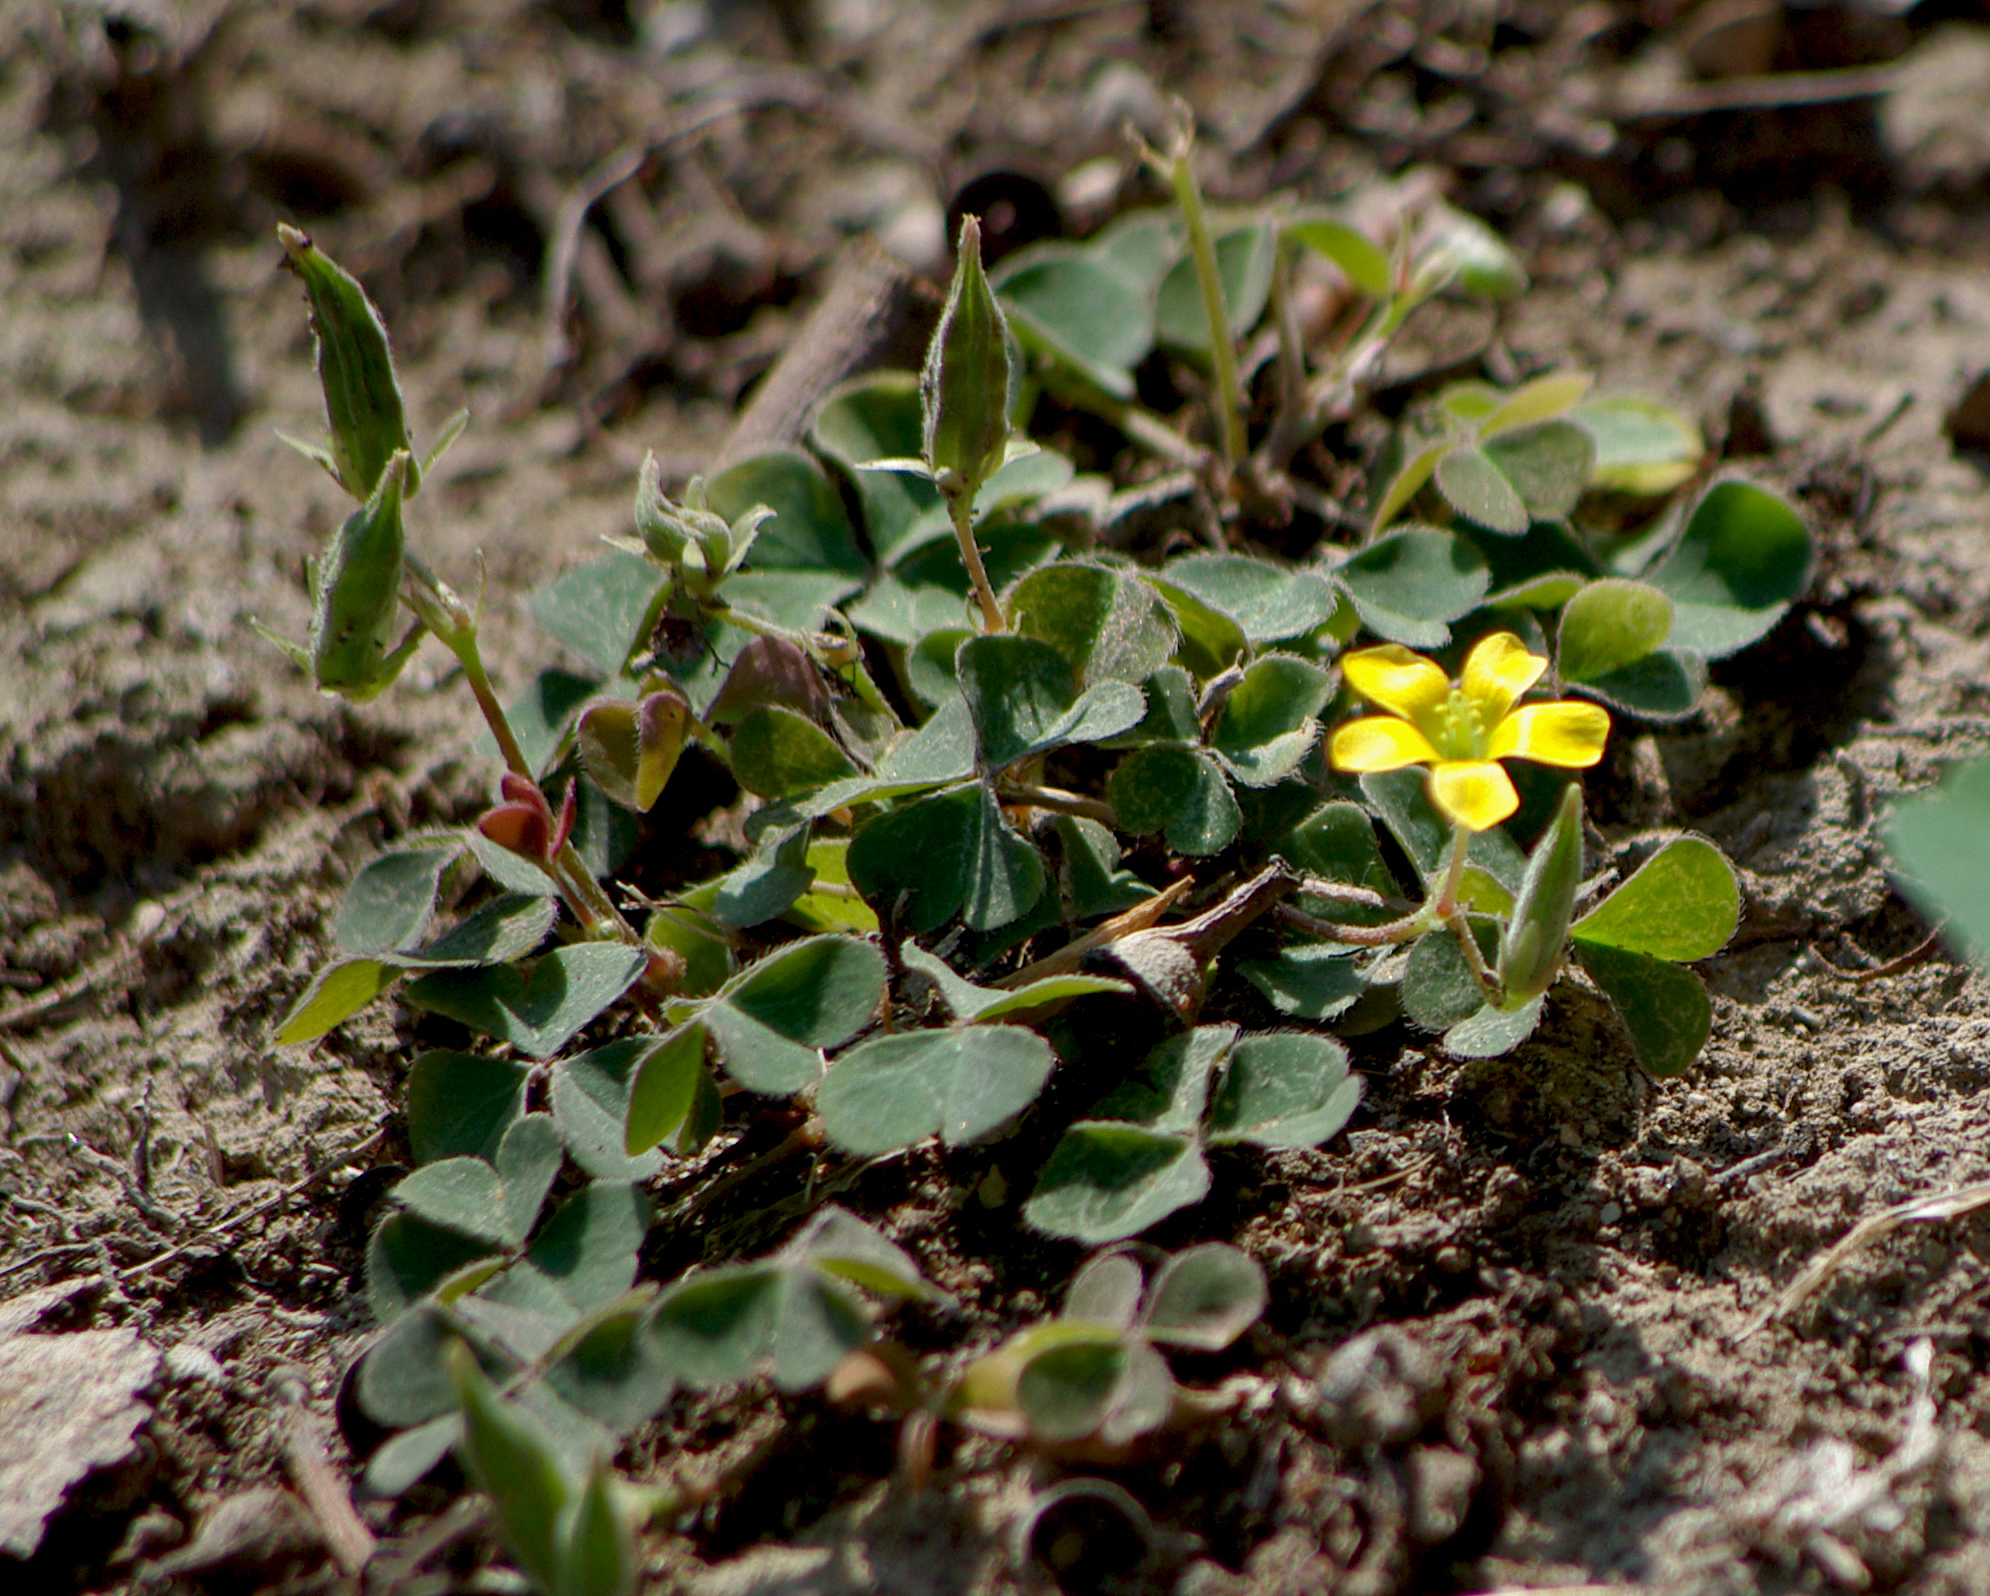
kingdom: Plantae
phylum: Tracheophyta
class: Magnoliopsida
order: Oxalidales
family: Oxalidaceae
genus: Oxalis
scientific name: Oxalis corniculata
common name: Procumbent yellow-sorrel
